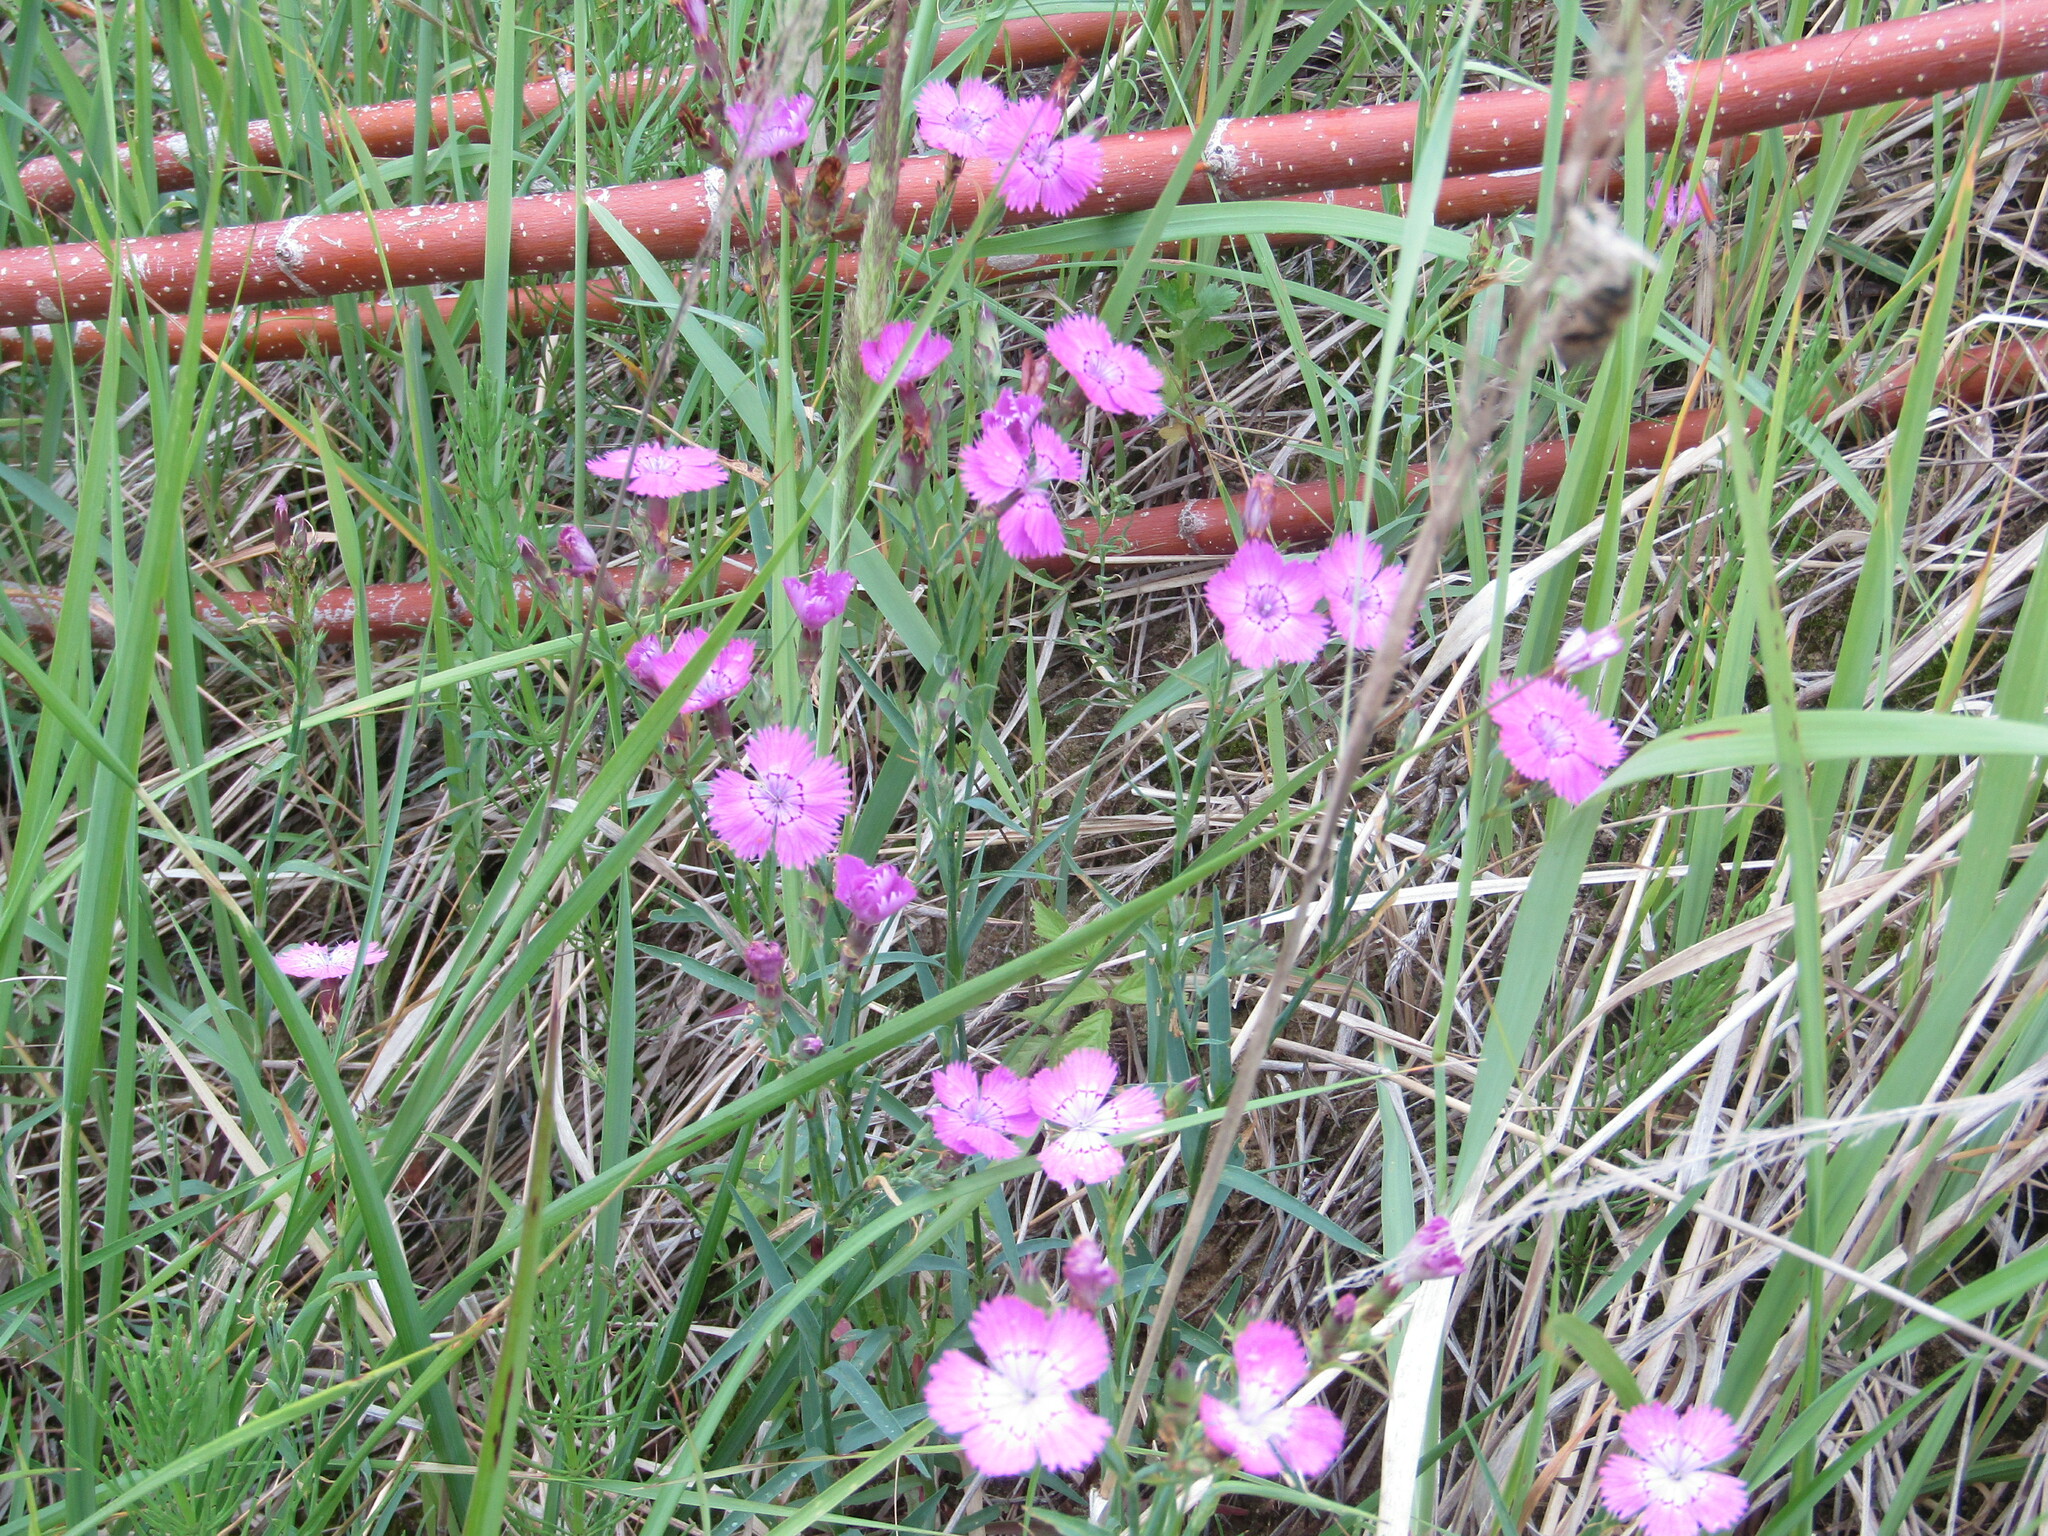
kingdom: Plantae
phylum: Tracheophyta
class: Magnoliopsida
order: Caryophyllales
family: Caryophyllaceae
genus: Dianthus
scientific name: Dianthus chinensis
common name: Rainbow pink
